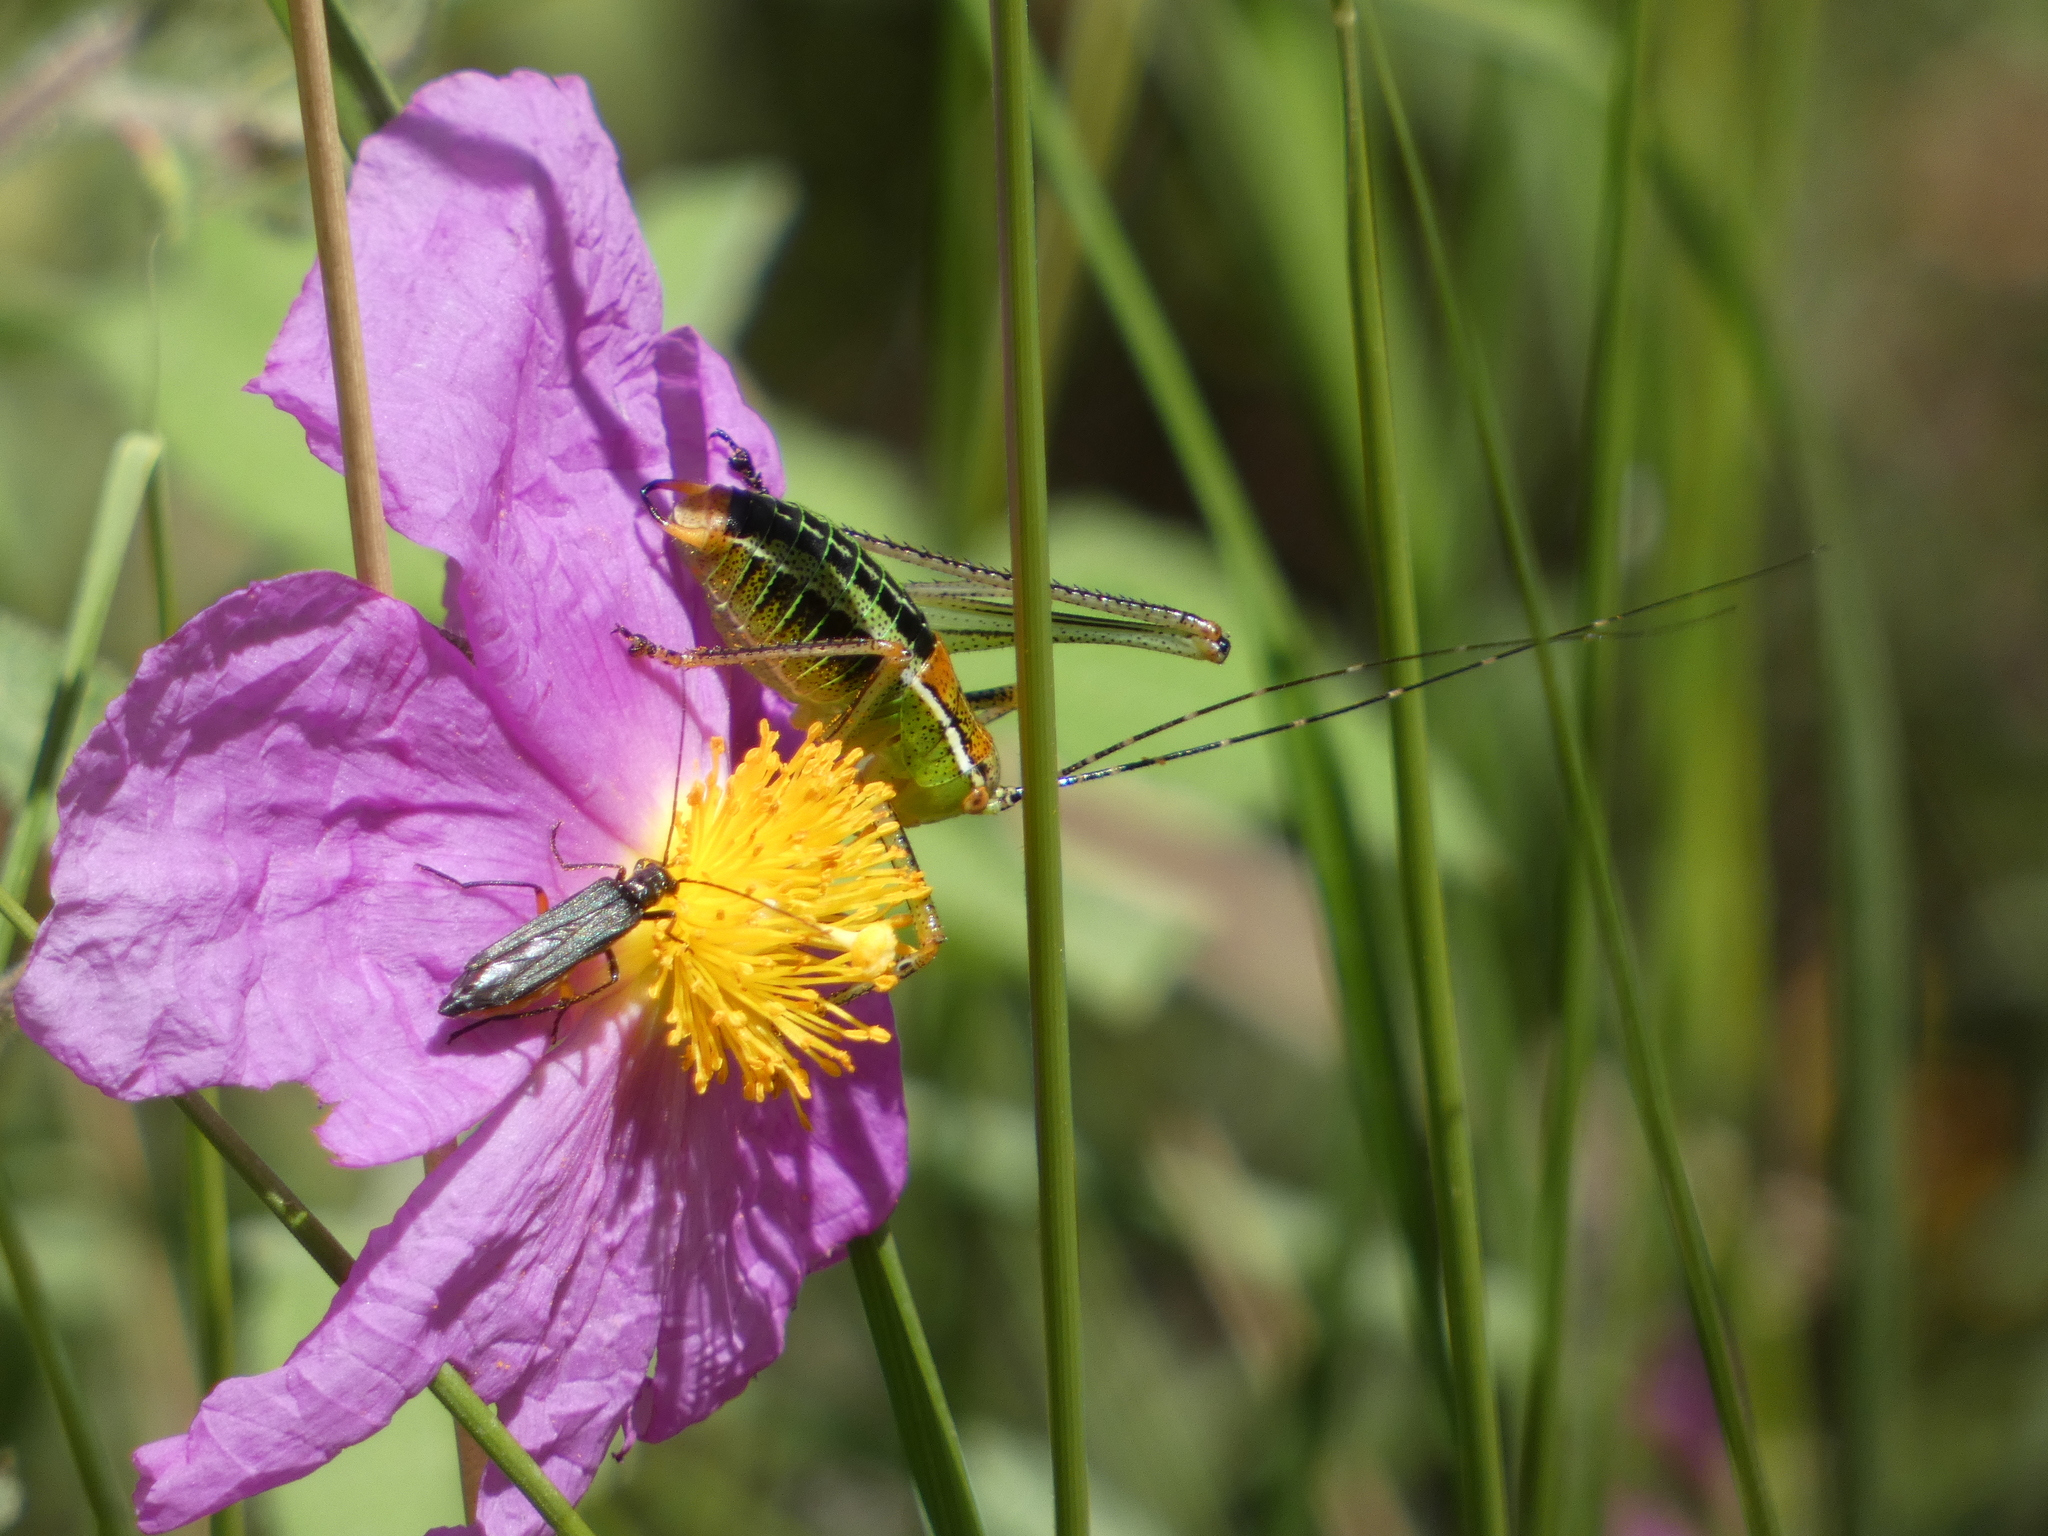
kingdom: Animalia
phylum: Arthropoda
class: Insecta
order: Orthoptera
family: Tettigoniidae
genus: Poecilimon
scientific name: Poecilimon laevissimus
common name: Transionian bright bush-cricket
